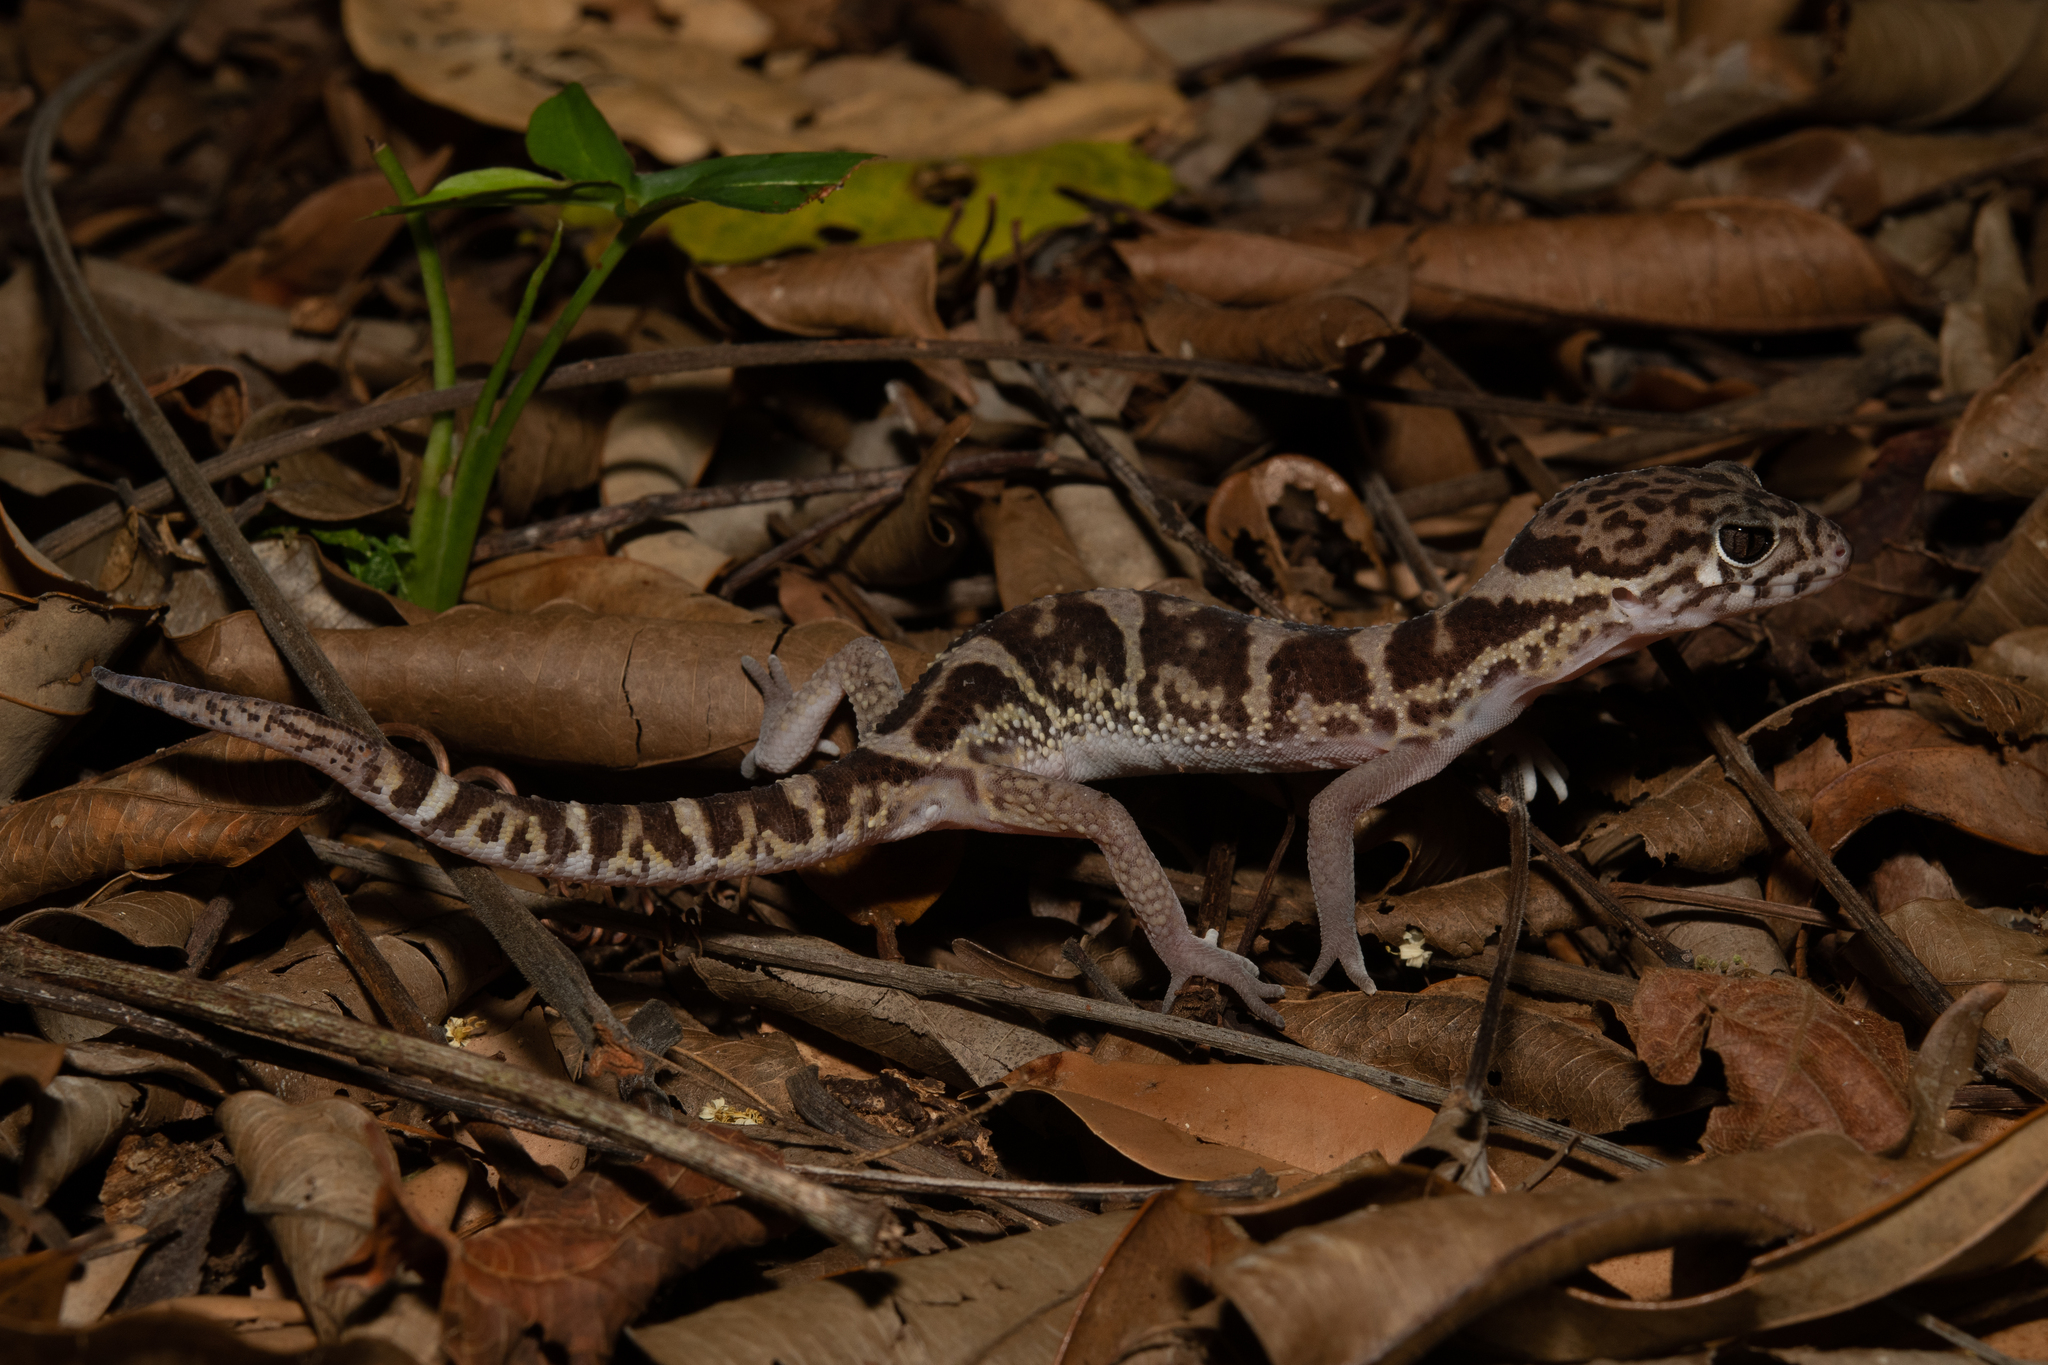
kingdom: Animalia
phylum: Chordata
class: Squamata
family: Eublepharidae
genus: Coleonyx
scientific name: Coleonyx mitratus
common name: Central american banded gecko
